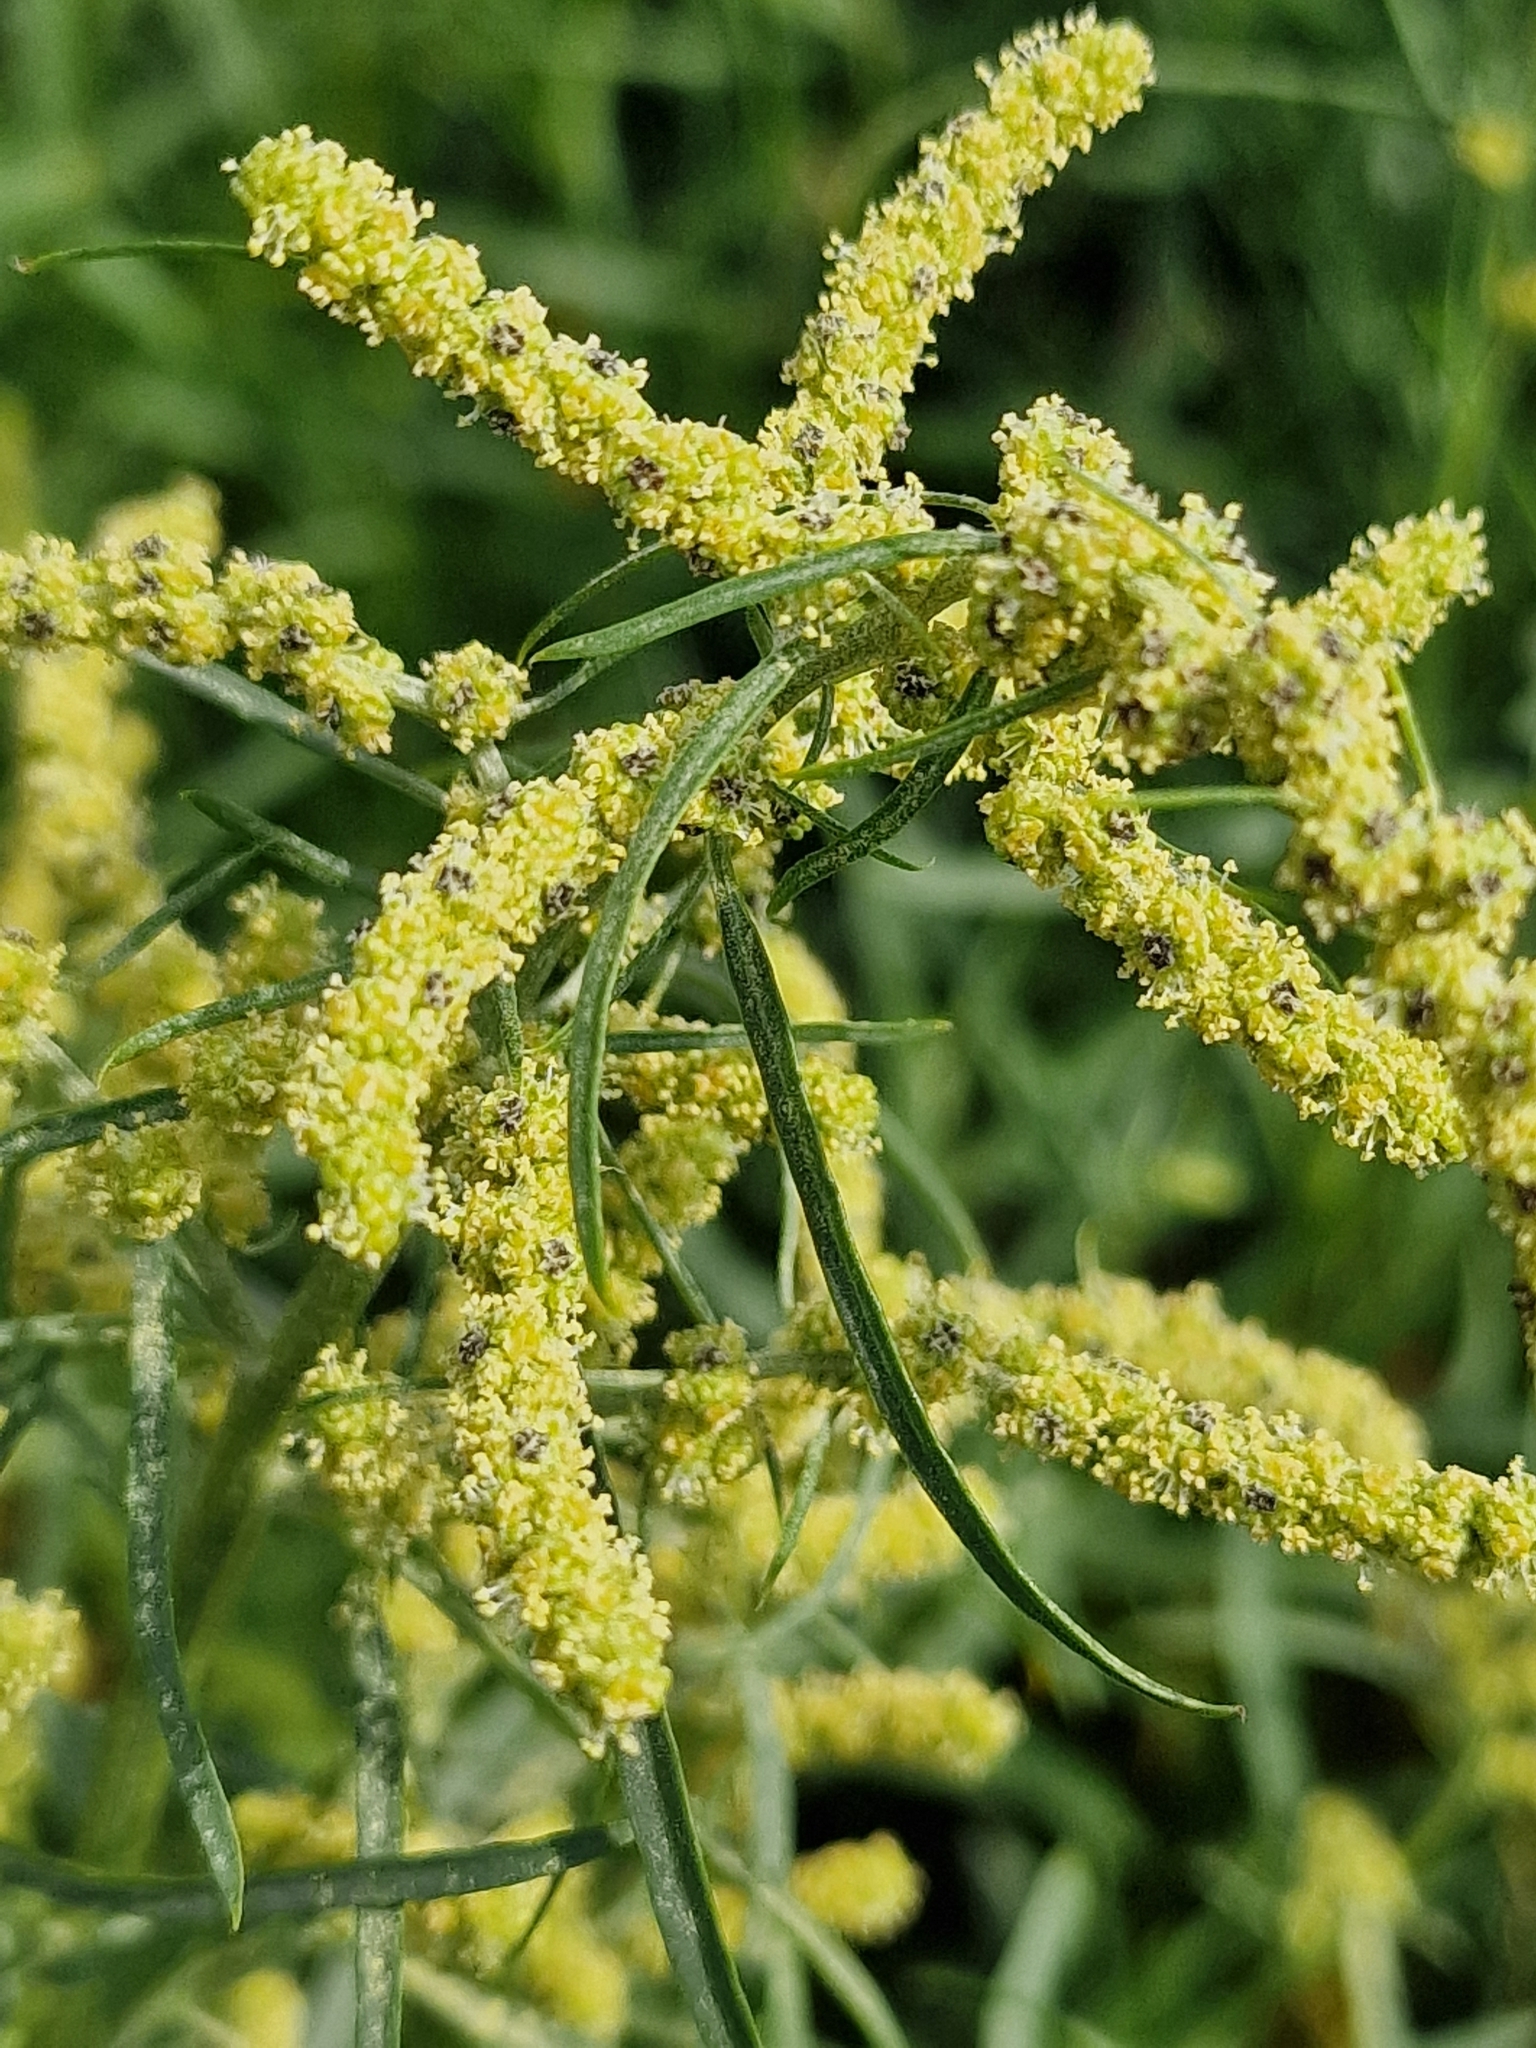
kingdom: Plantae
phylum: Tracheophyta
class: Magnoliopsida
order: Caryophyllales
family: Amaranthaceae
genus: Atriplex
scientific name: Atriplex littoralis
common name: Grass-leaved orache
